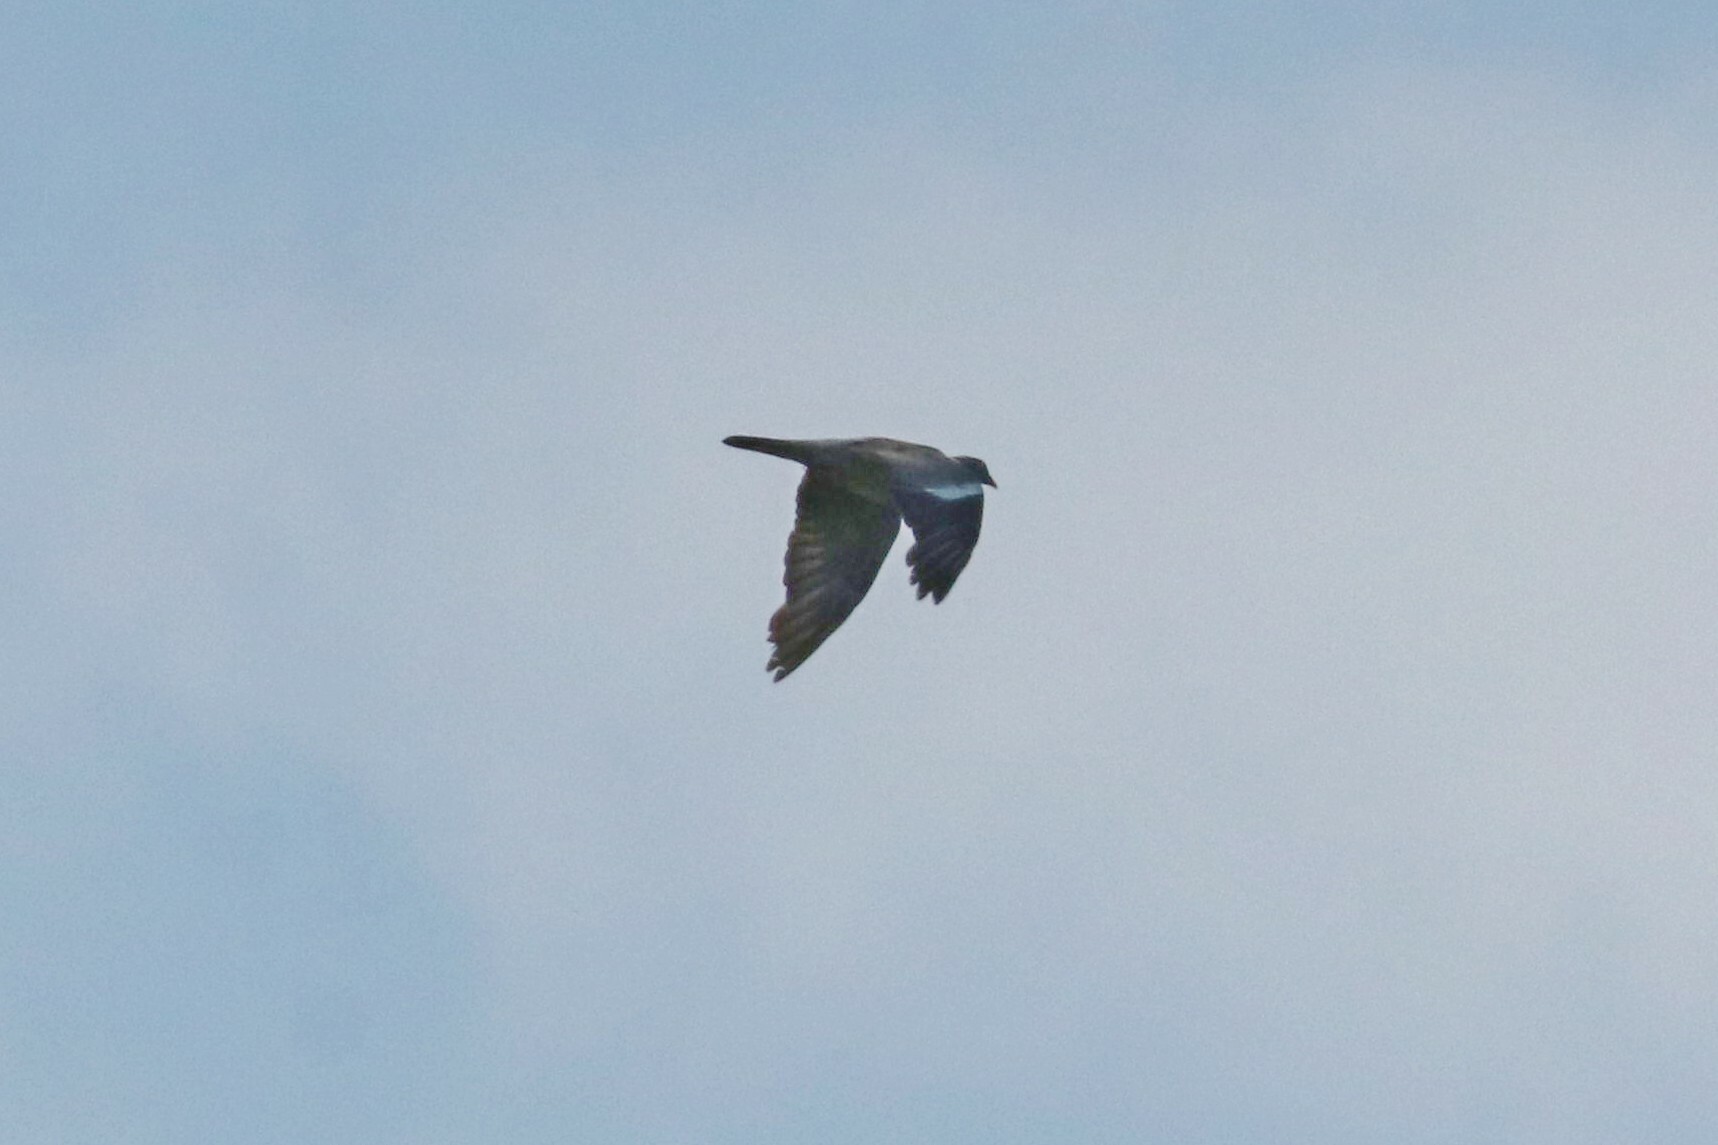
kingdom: Animalia
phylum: Chordata
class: Aves
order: Columbiformes
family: Columbidae
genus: Columba
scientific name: Columba palumbus
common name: Common wood pigeon
